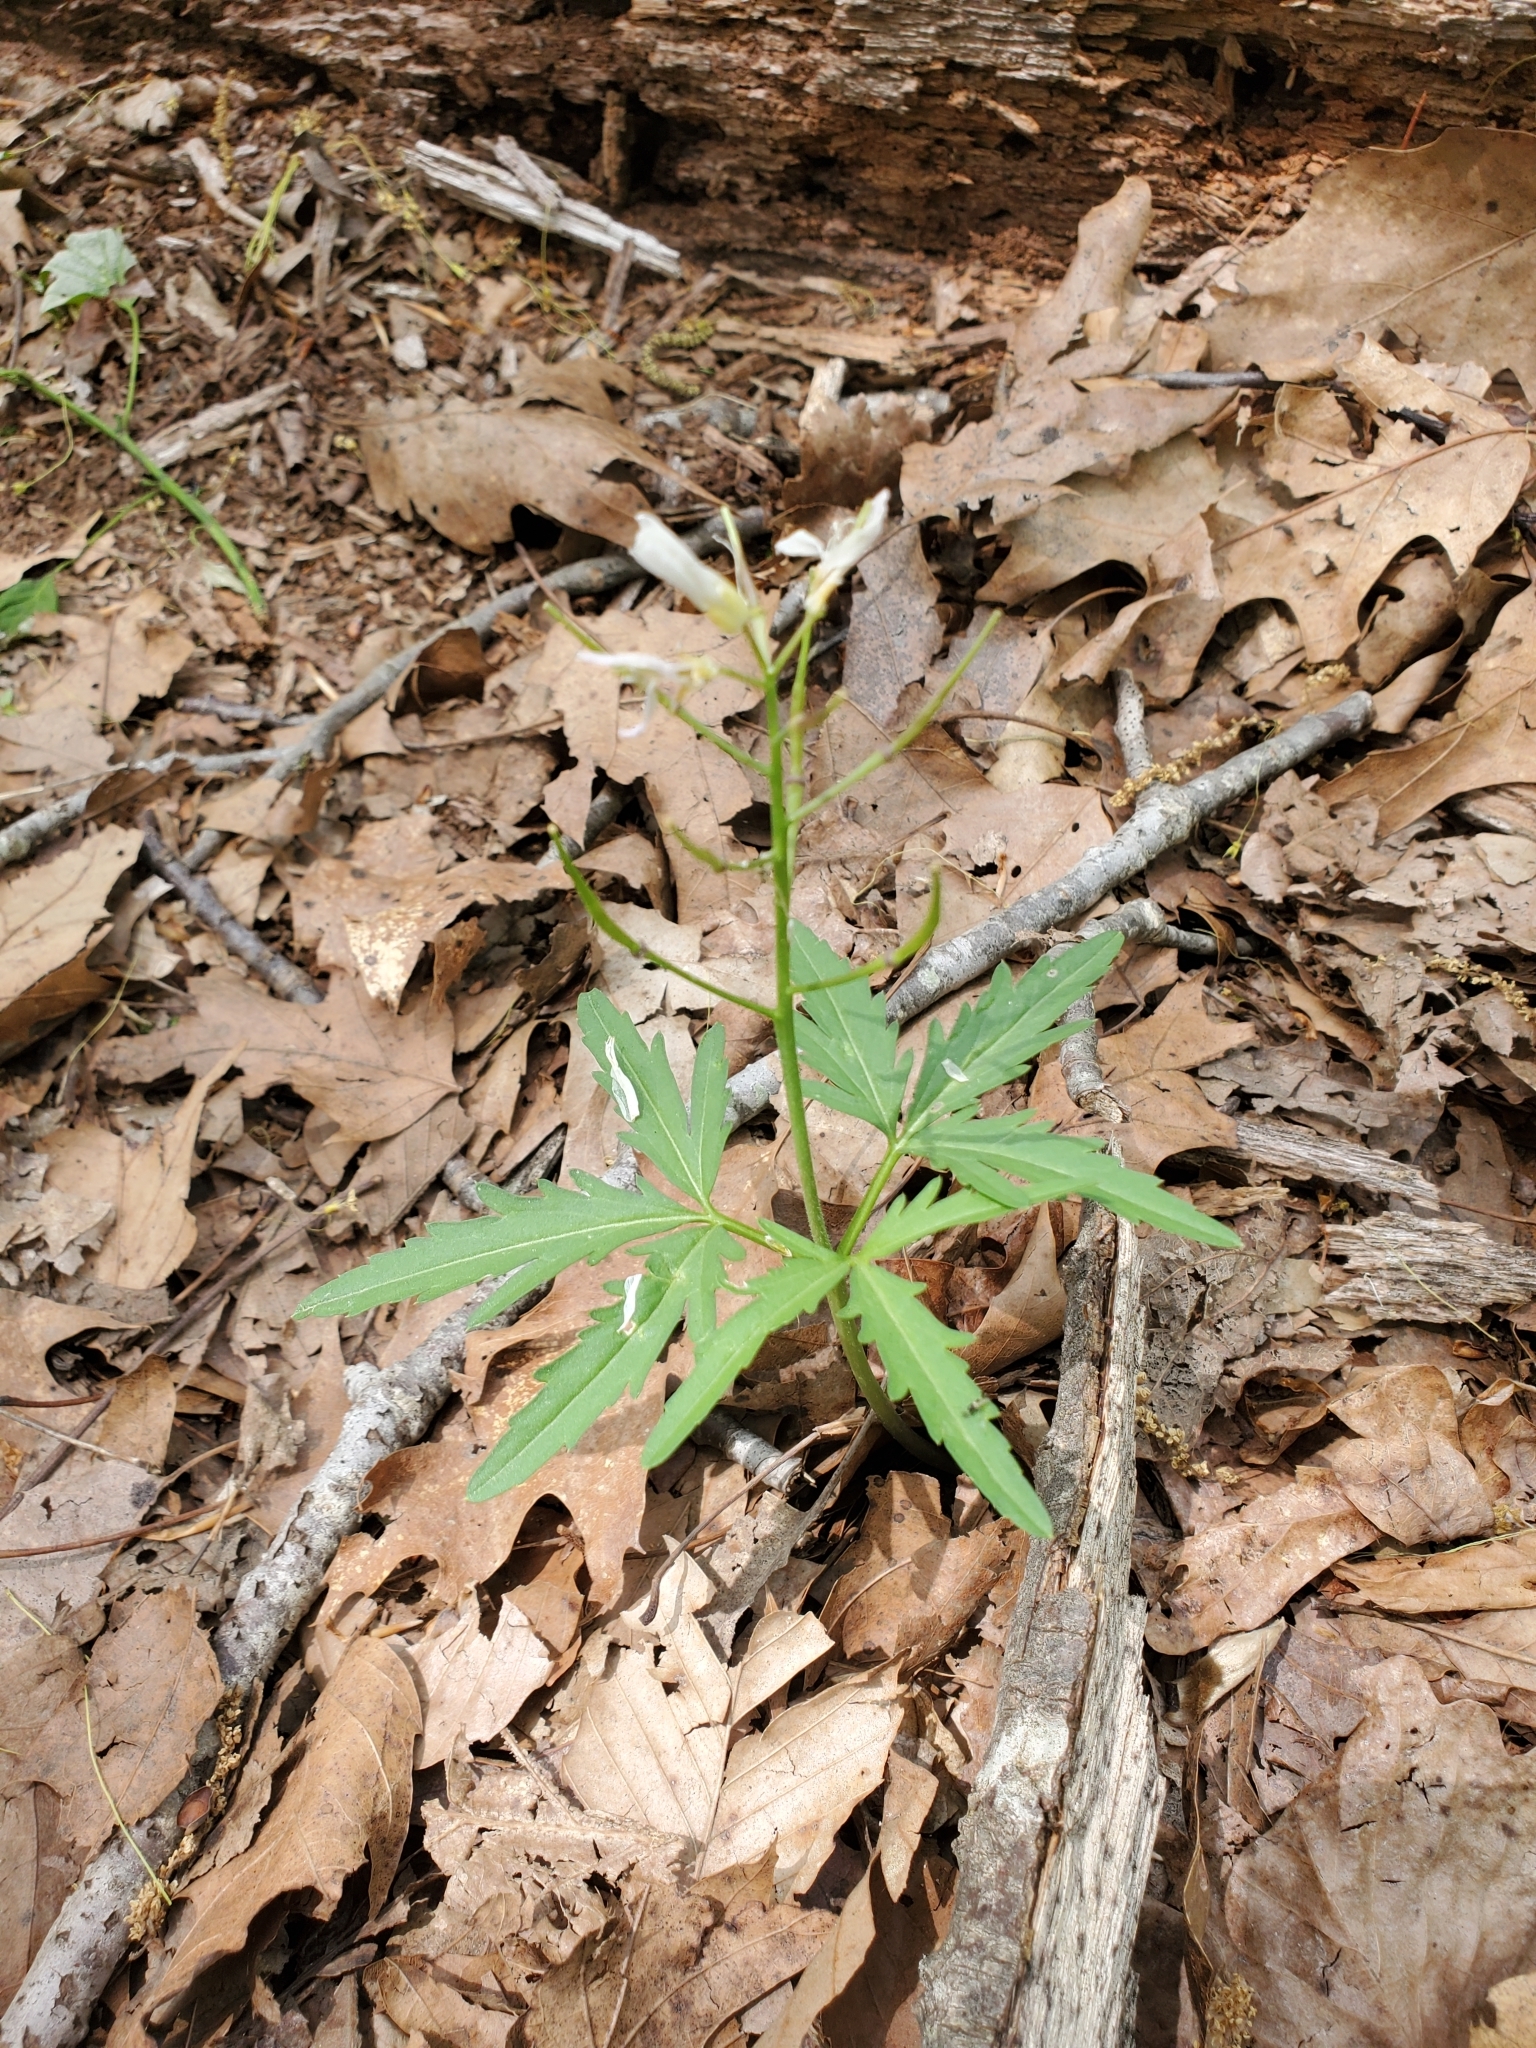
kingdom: Plantae
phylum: Tracheophyta
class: Magnoliopsida
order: Brassicales
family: Brassicaceae
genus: Cardamine
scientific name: Cardamine concatenata
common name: Cut-leaf toothcup
